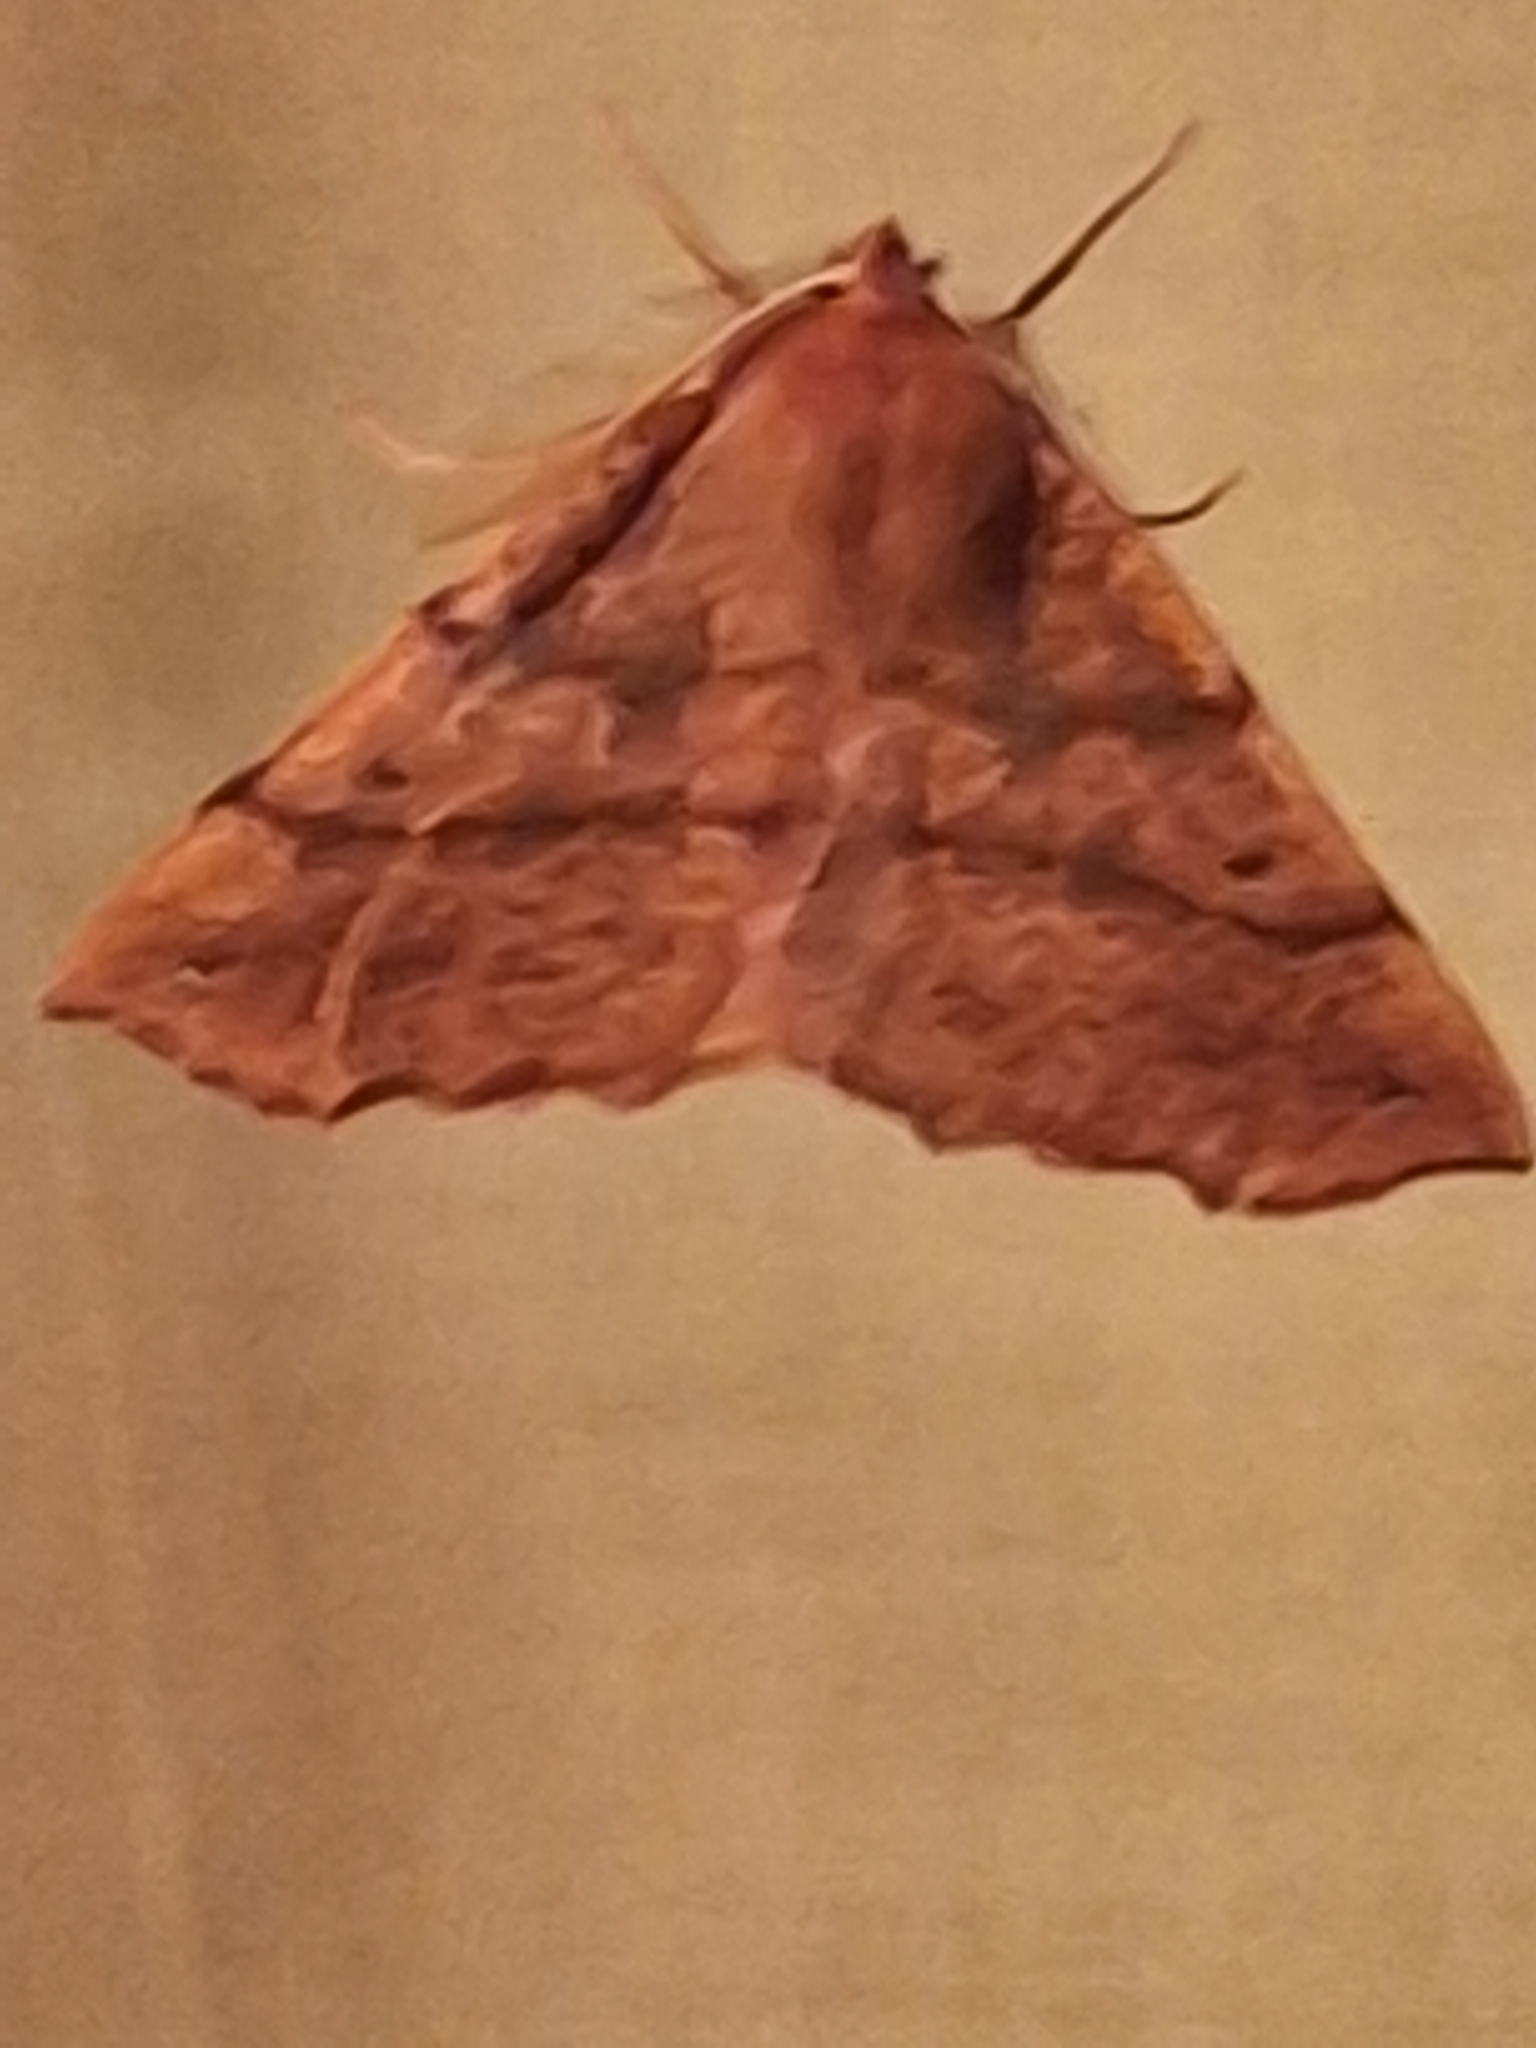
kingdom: Animalia
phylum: Arthropoda
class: Insecta
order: Lepidoptera
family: Geometridae
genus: Colotois
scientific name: Colotois pennaria
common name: Feathered thorn
